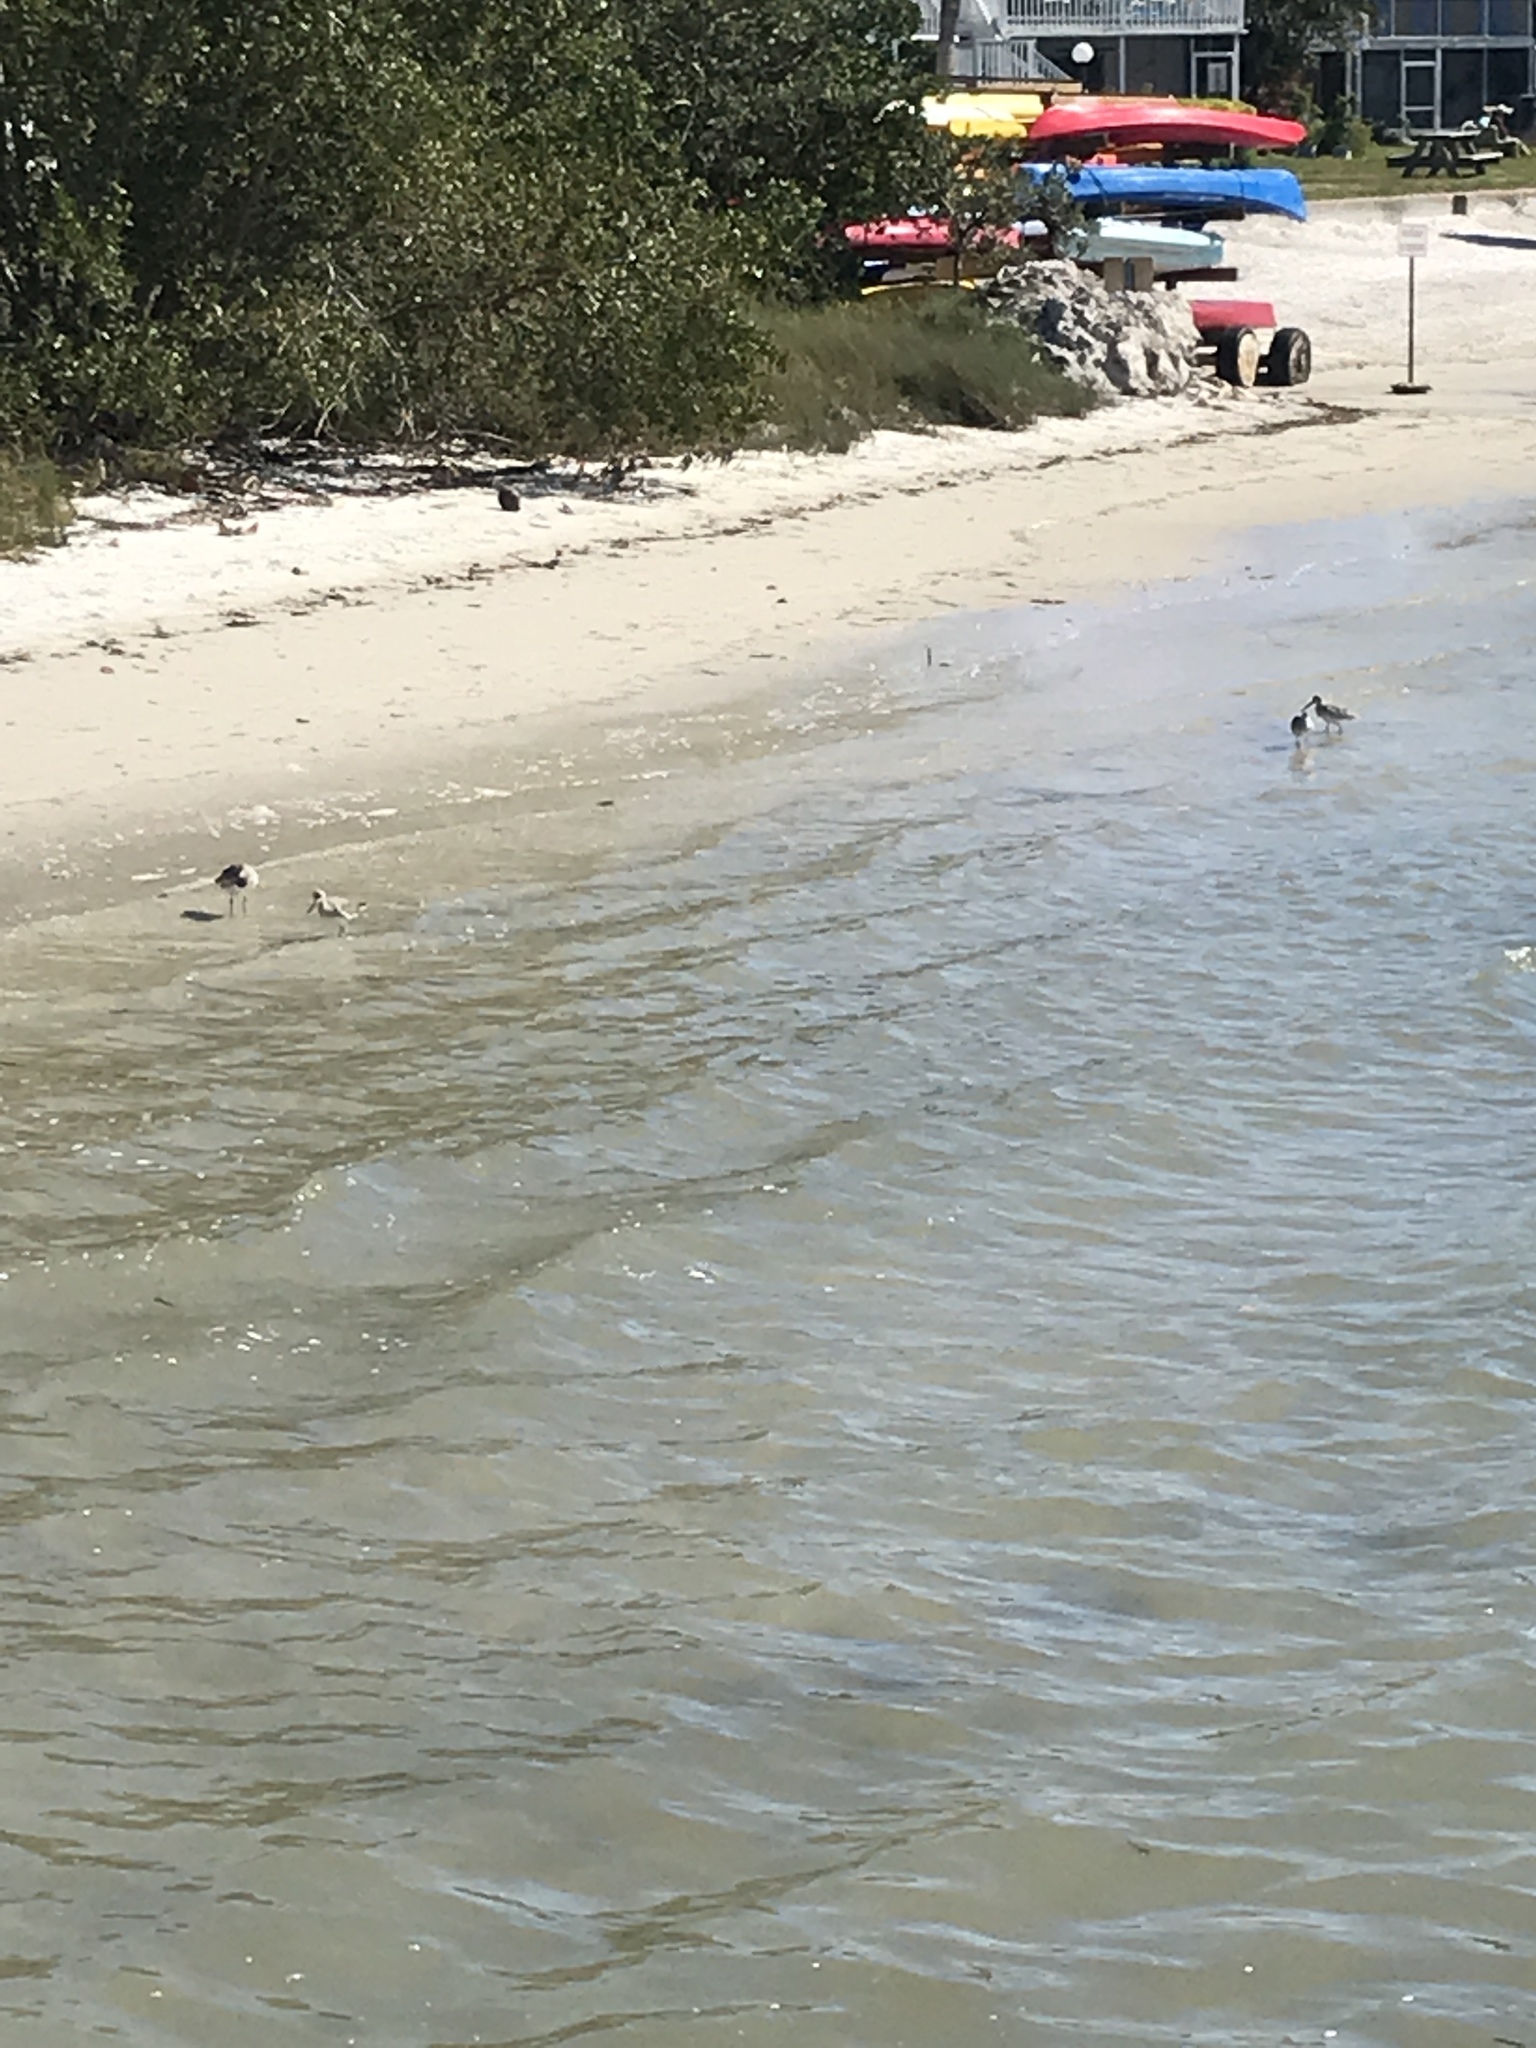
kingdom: Animalia
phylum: Chordata
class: Aves
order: Charadriiformes
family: Scolopacidae
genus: Tringa
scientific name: Tringa semipalmata
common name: Willet
